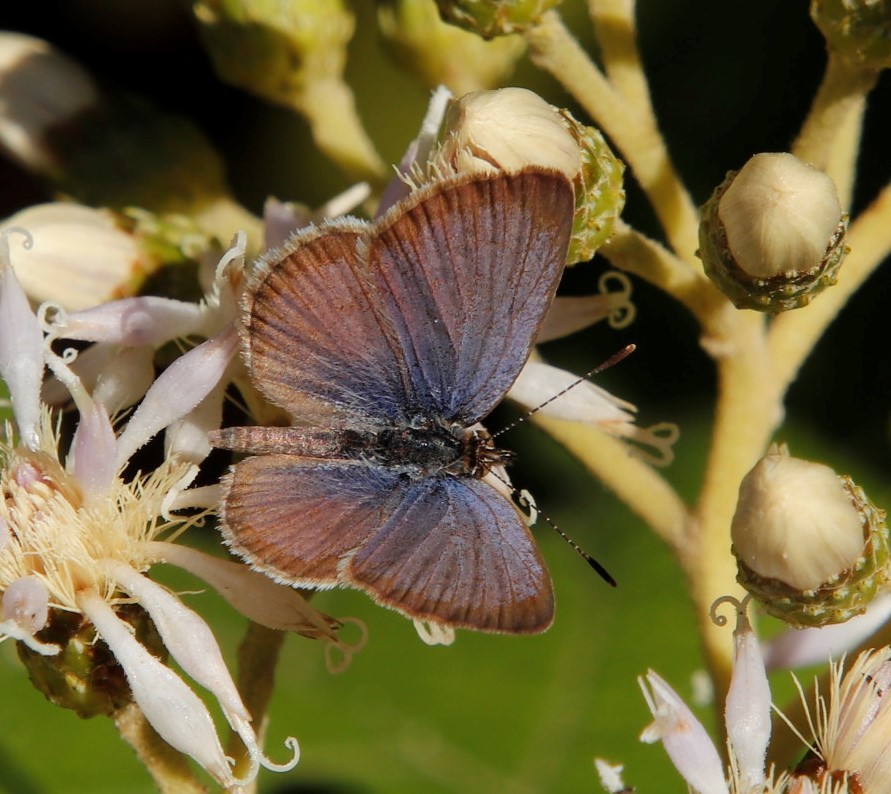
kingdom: Animalia
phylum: Arthropoda
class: Insecta
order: Lepidoptera
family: Lycaenidae
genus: Zizeeria
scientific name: Zizeeria knysna
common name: African grass blue
